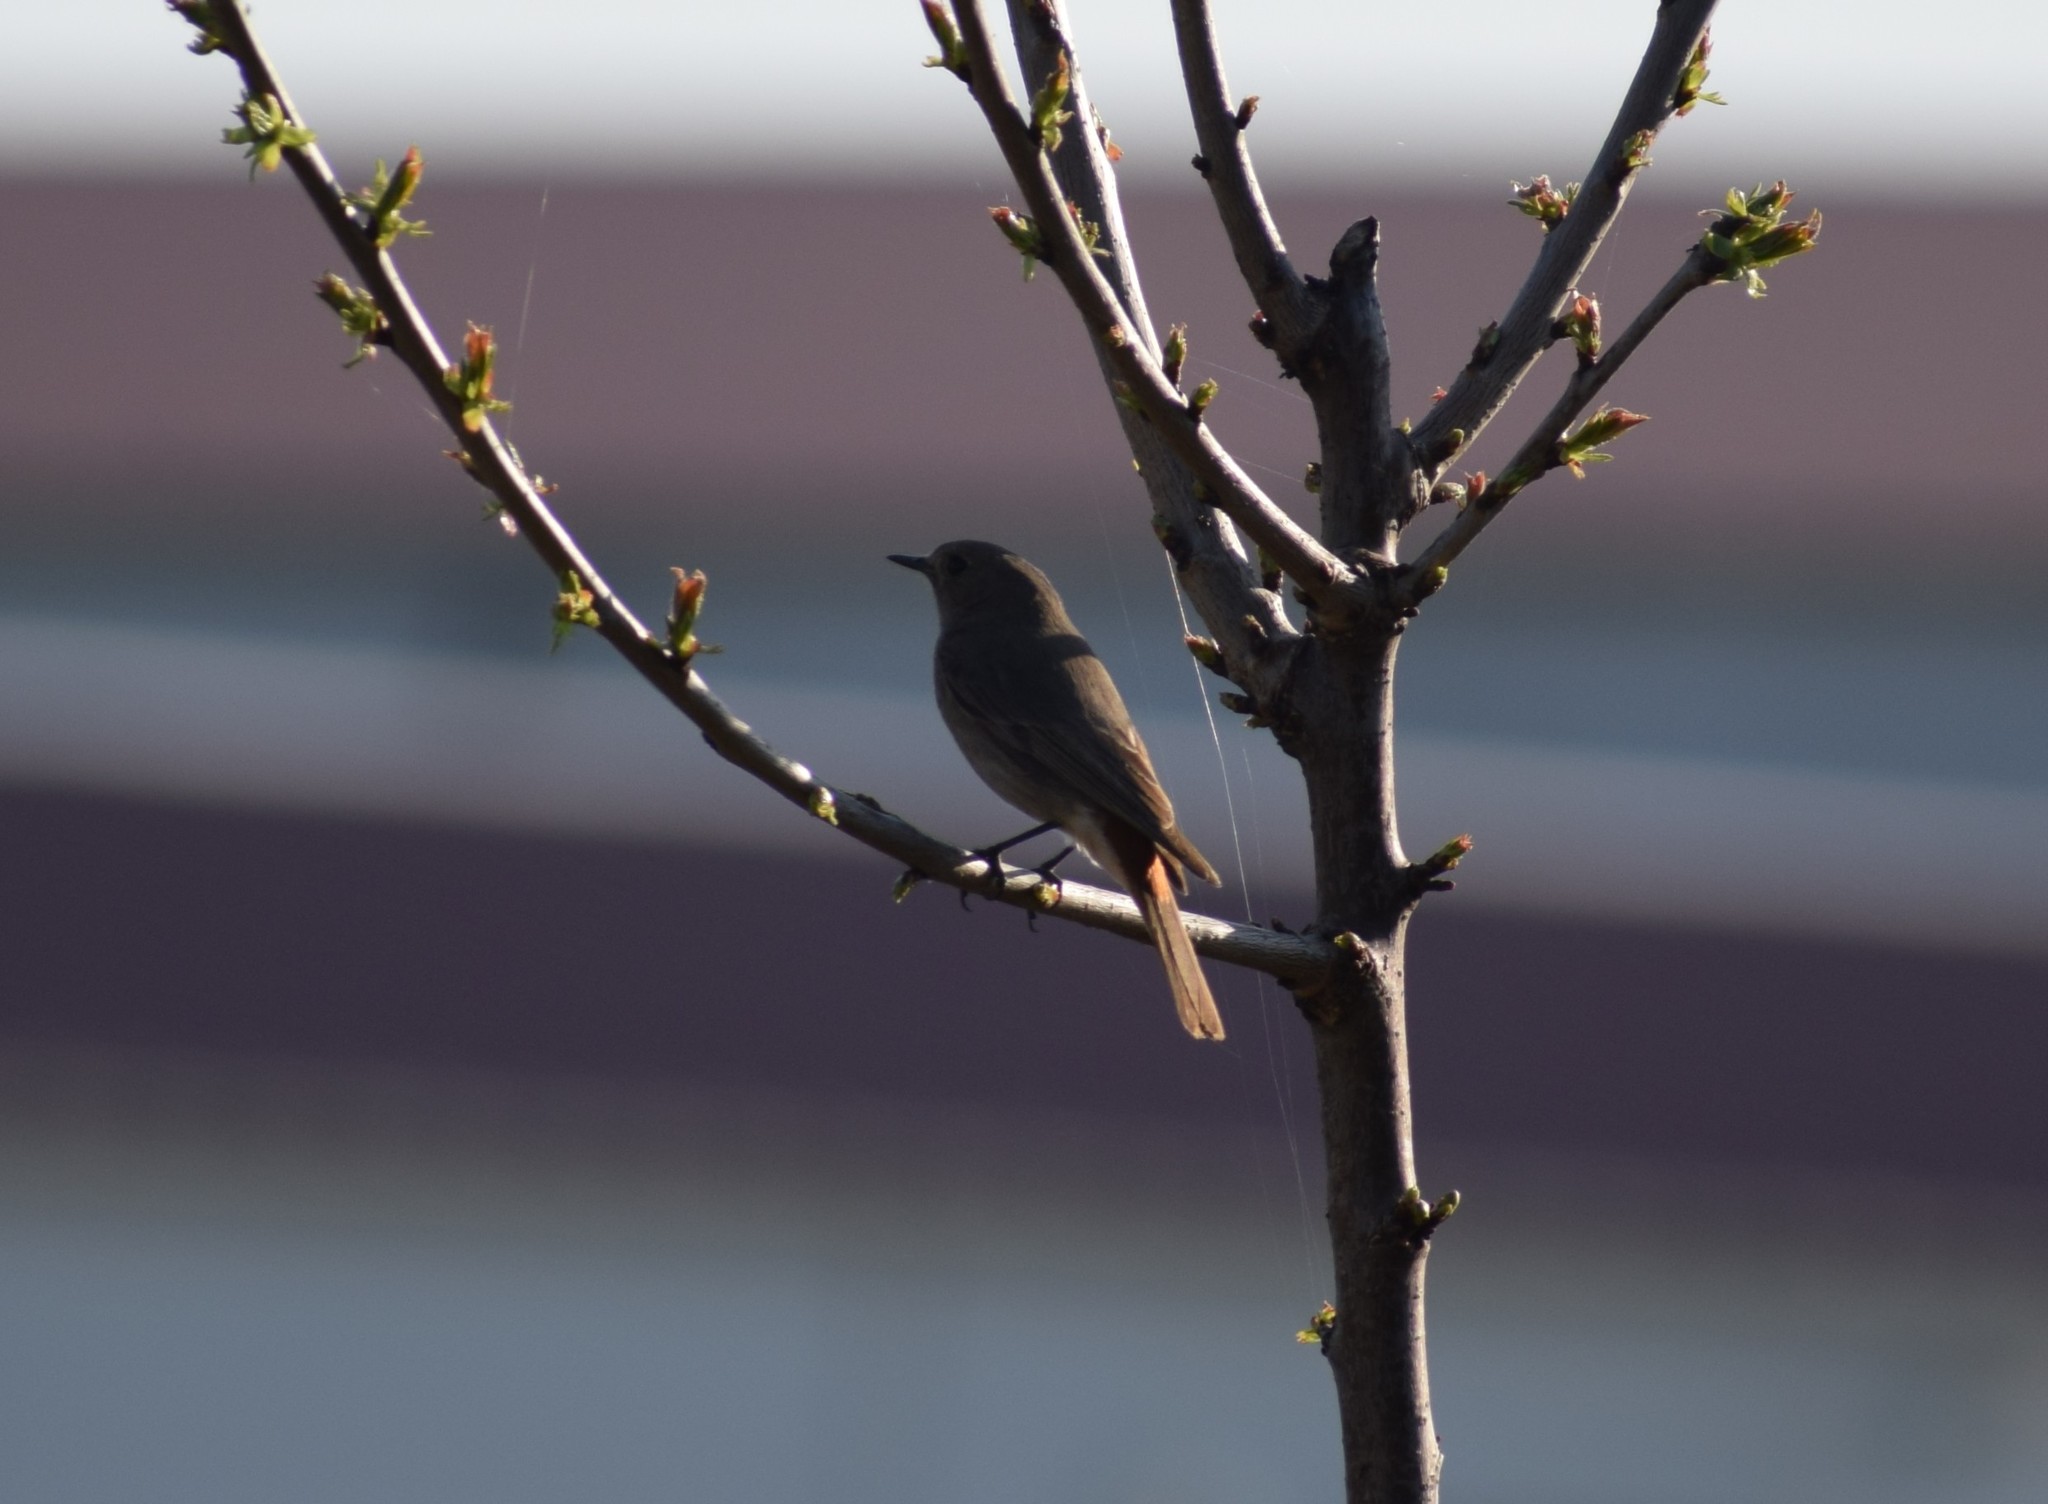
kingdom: Animalia
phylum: Chordata
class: Aves
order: Passeriformes
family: Muscicapidae
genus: Phoenicurus
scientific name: Phoenicurus ochruros
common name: Black redstart
